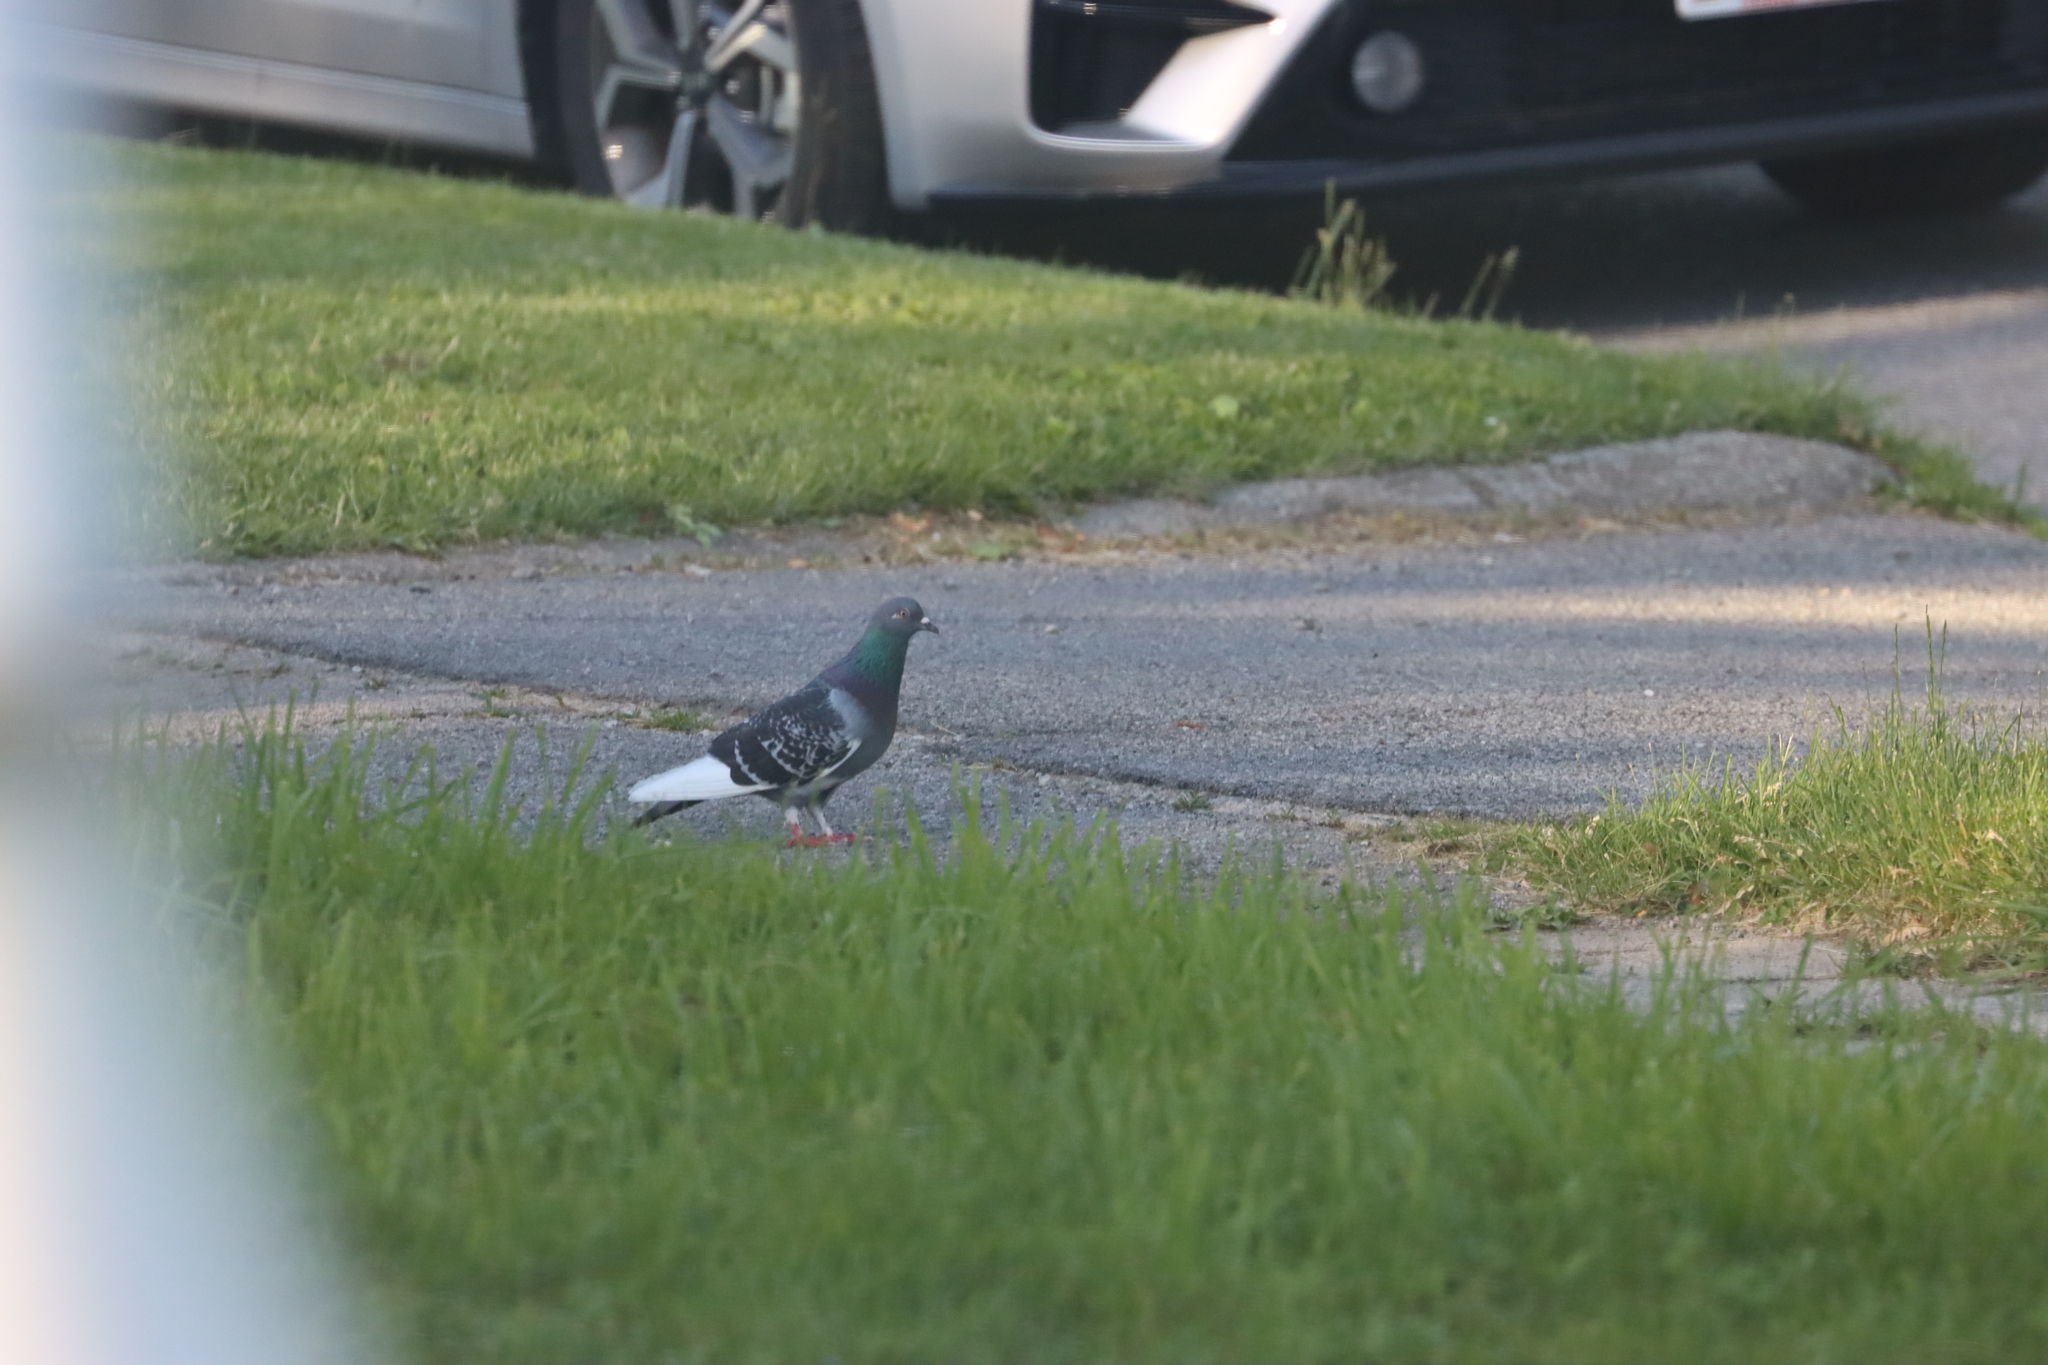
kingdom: Animalia
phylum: Chordata
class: Aves
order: Columbiformes
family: Columbidae
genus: Columba
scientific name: Columba livia
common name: Rock pigeon
